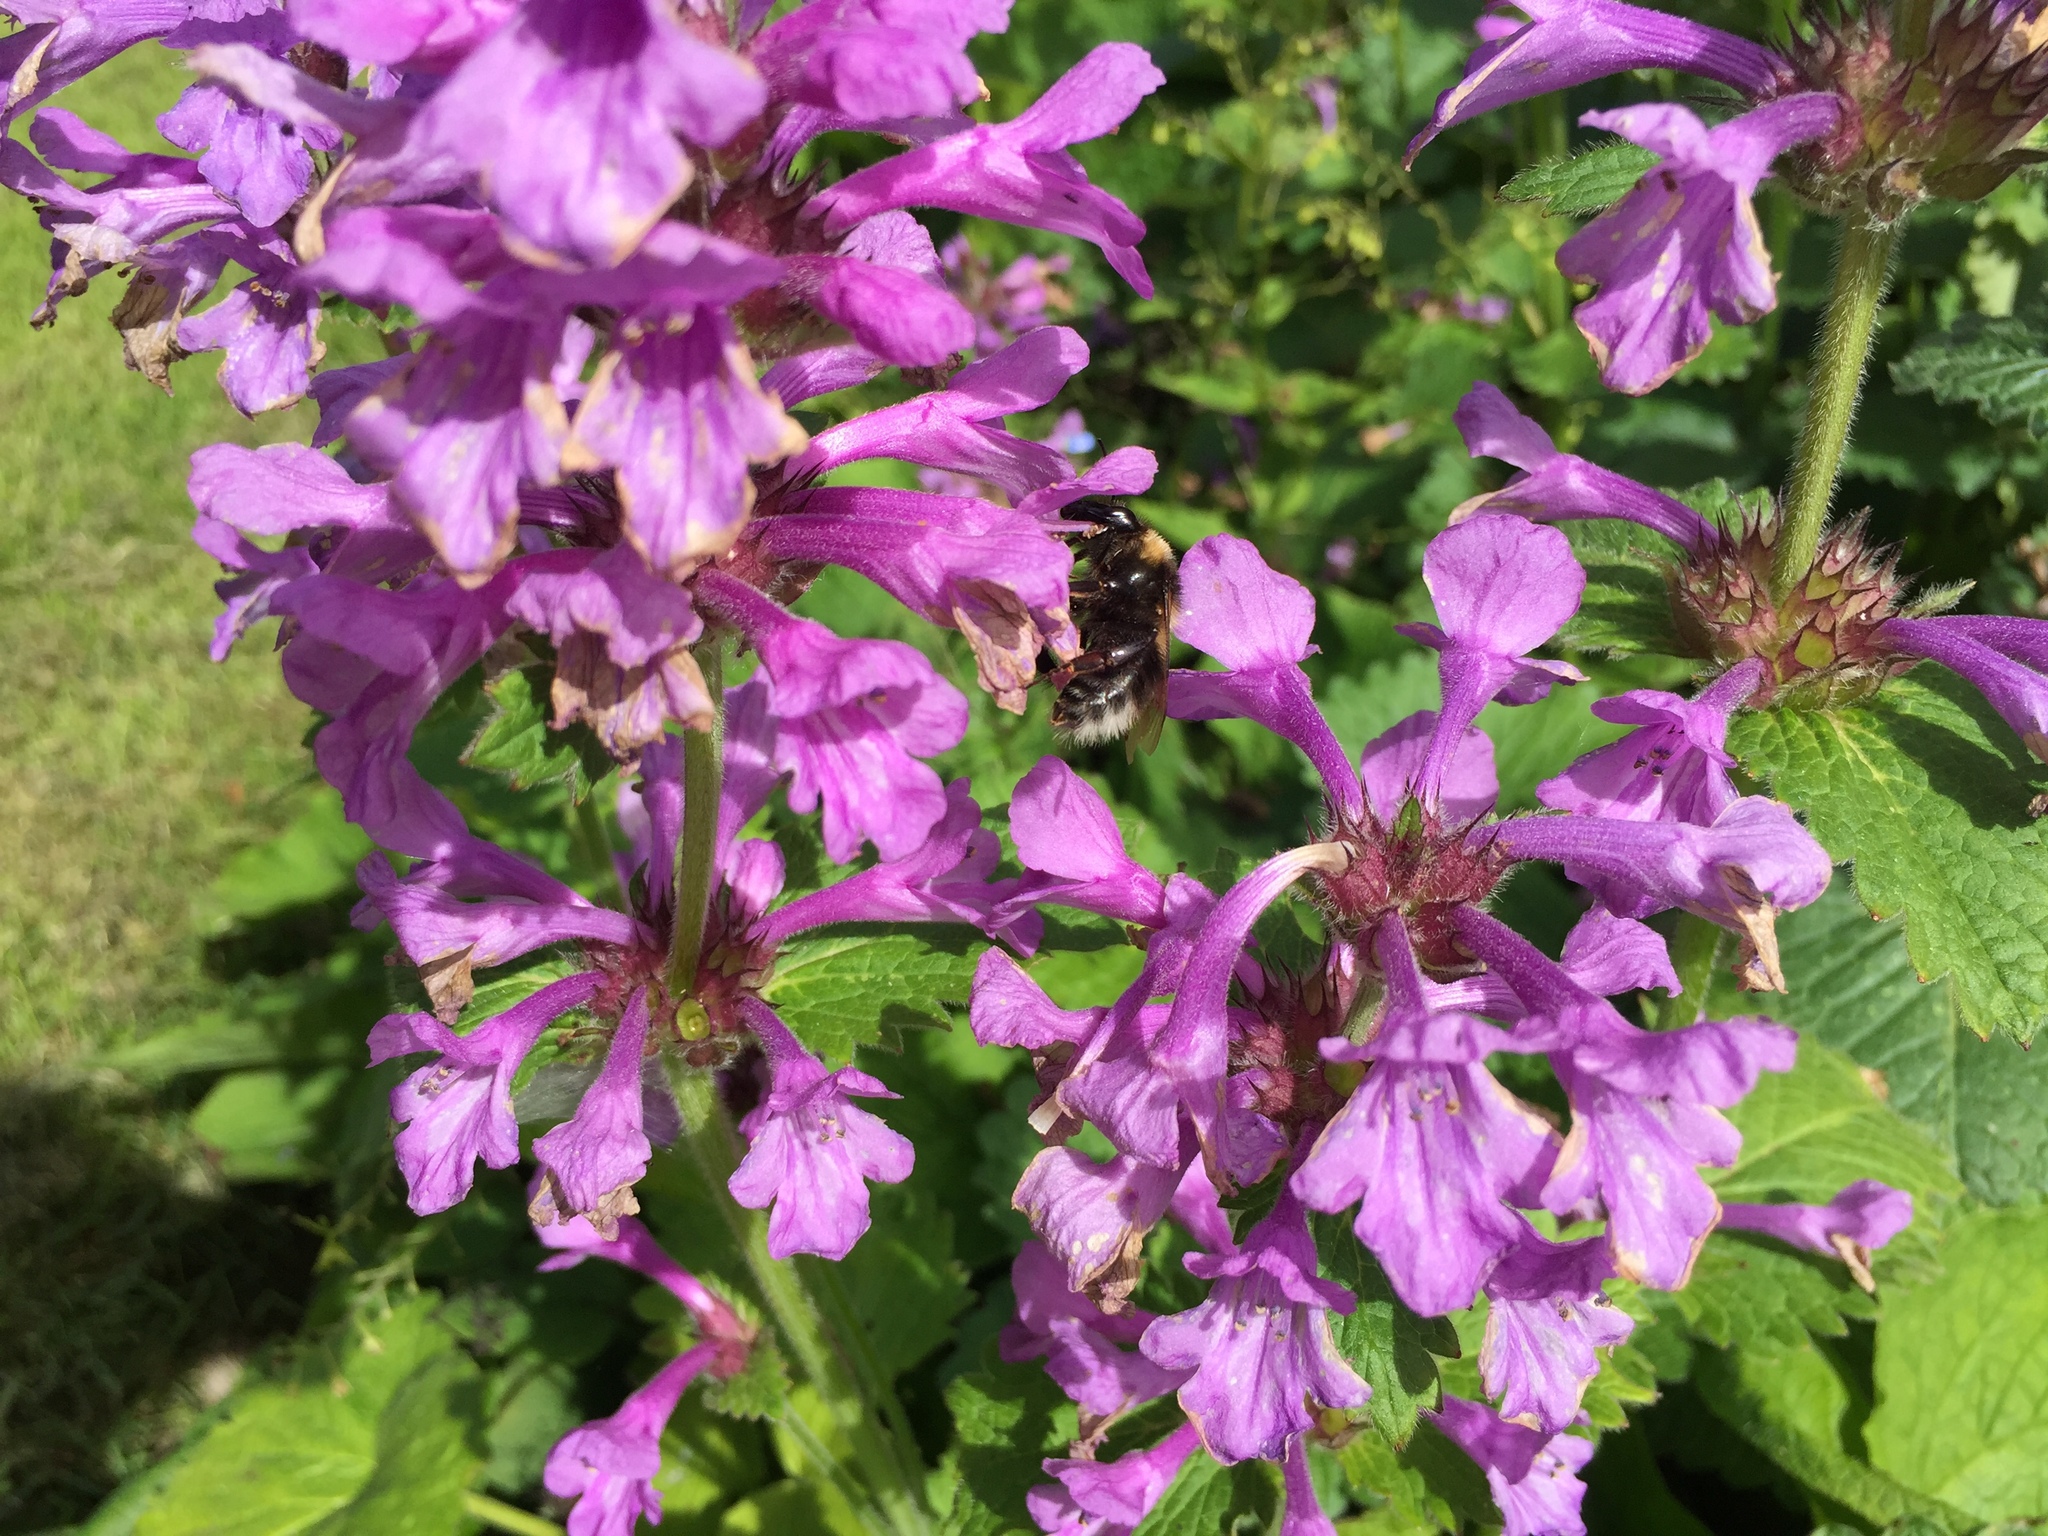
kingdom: Animalia
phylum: Arthropoda
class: Insecta
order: Hymenoptera
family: Apidae
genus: Bombus
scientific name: Bombus hortorum
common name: Garden bumblebee
